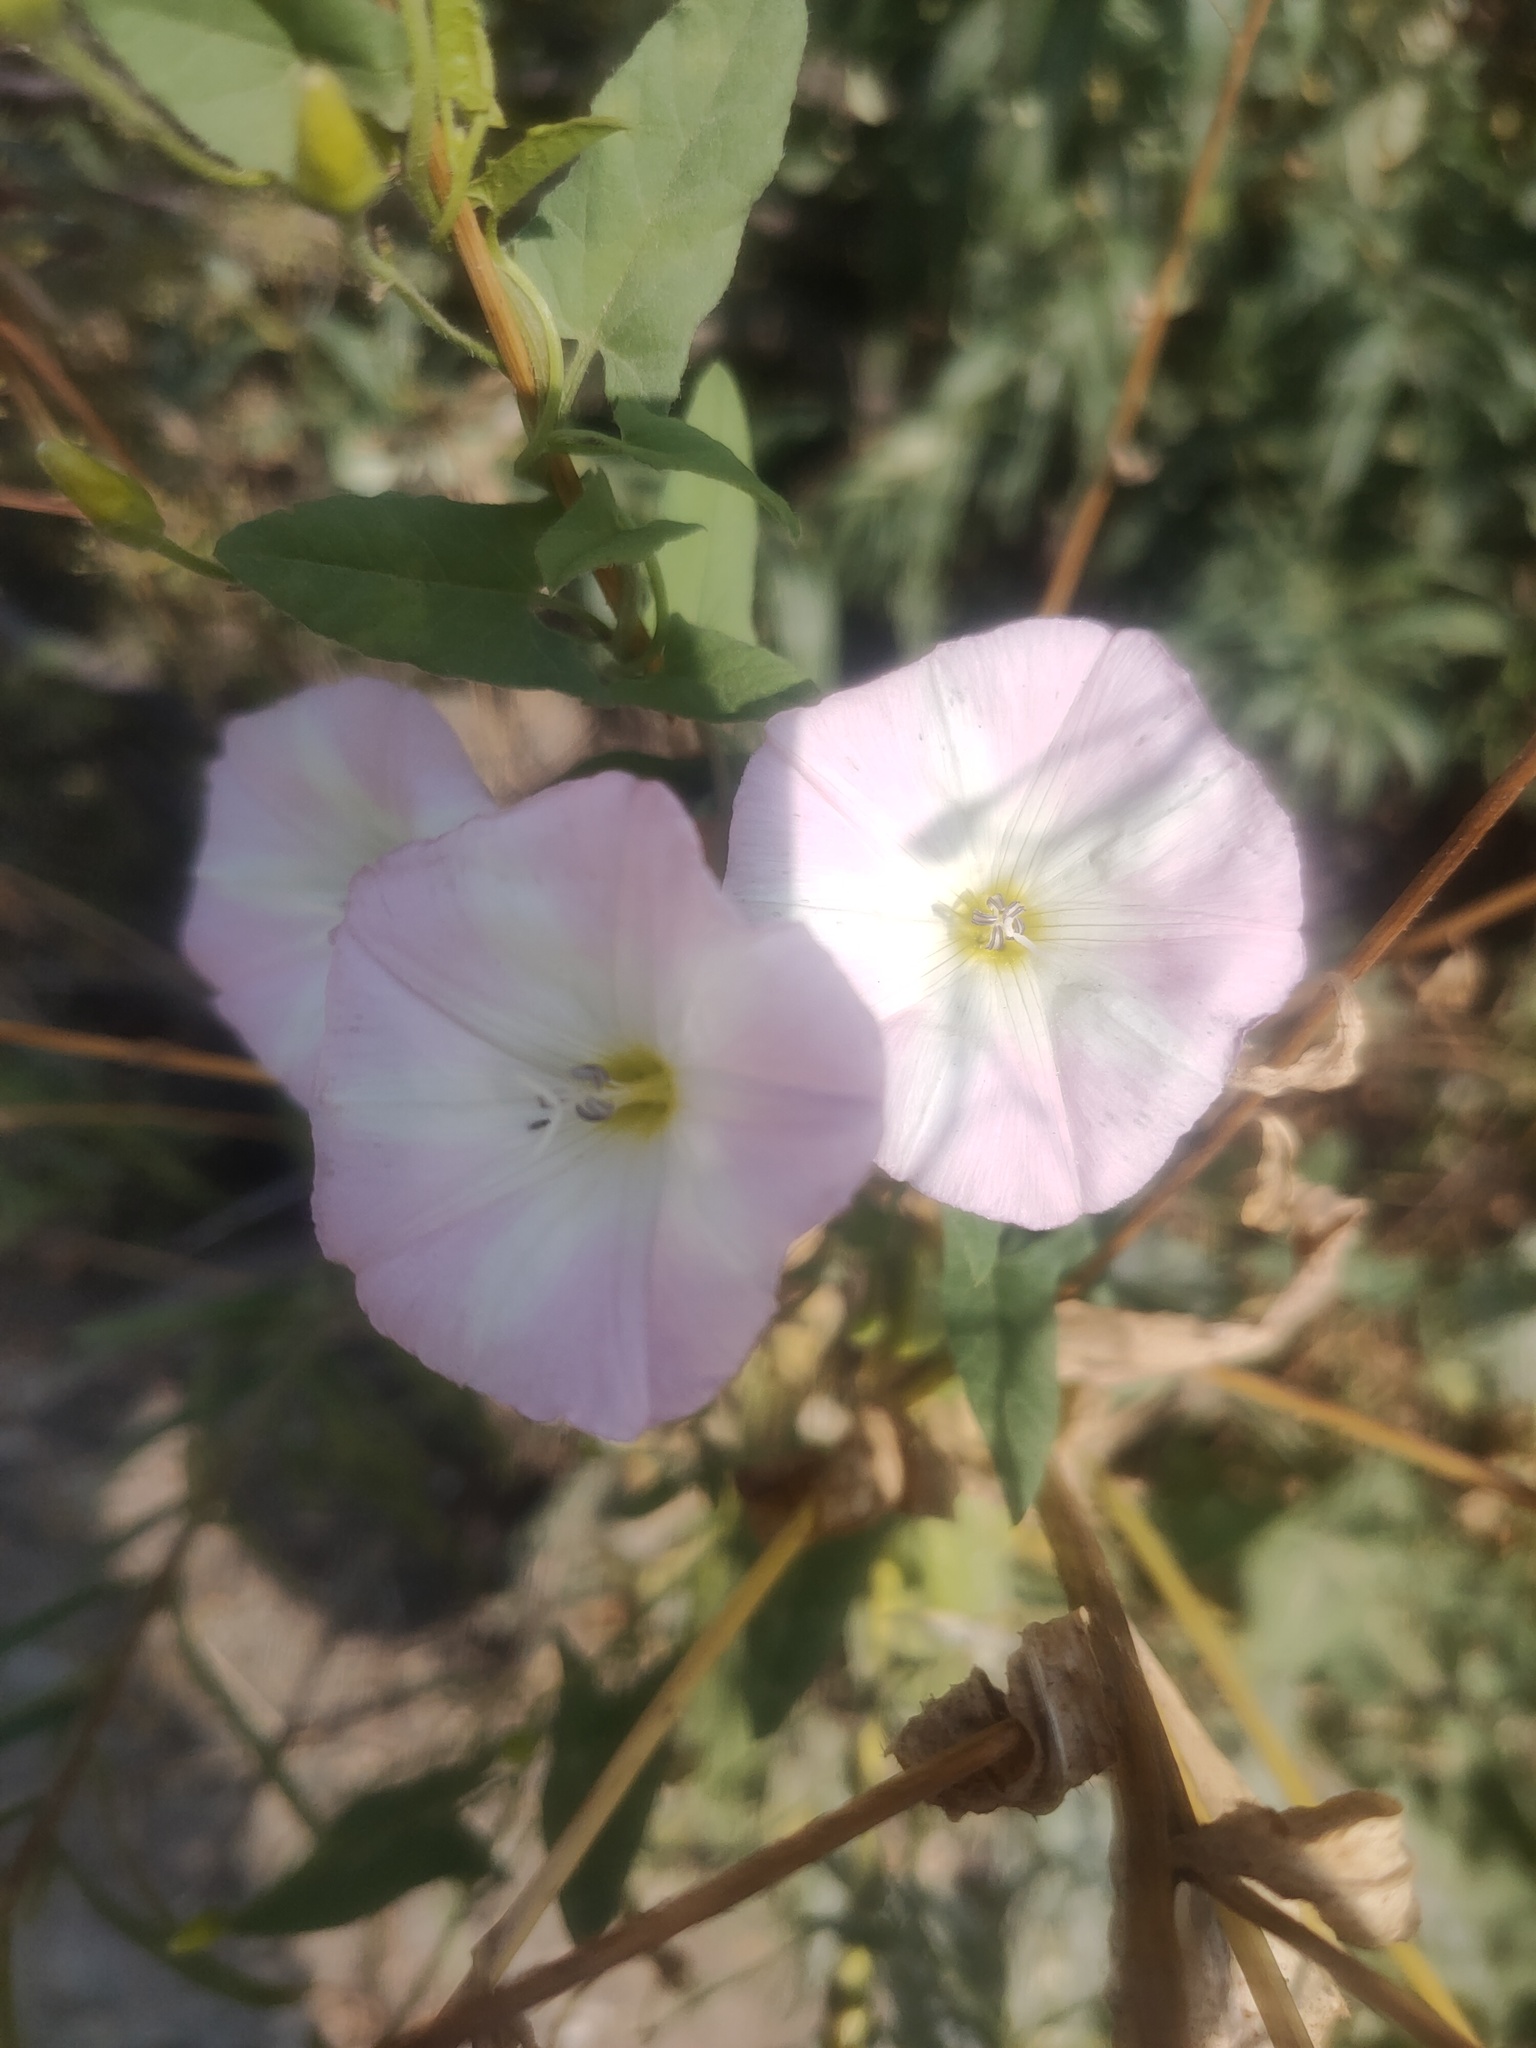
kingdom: Plantae
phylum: Tracheophyta
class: Magnoliopsida
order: Solanales
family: Convolvulaceae
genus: Convolvulus
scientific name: Convolvulus arvensis
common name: Field bindweed
